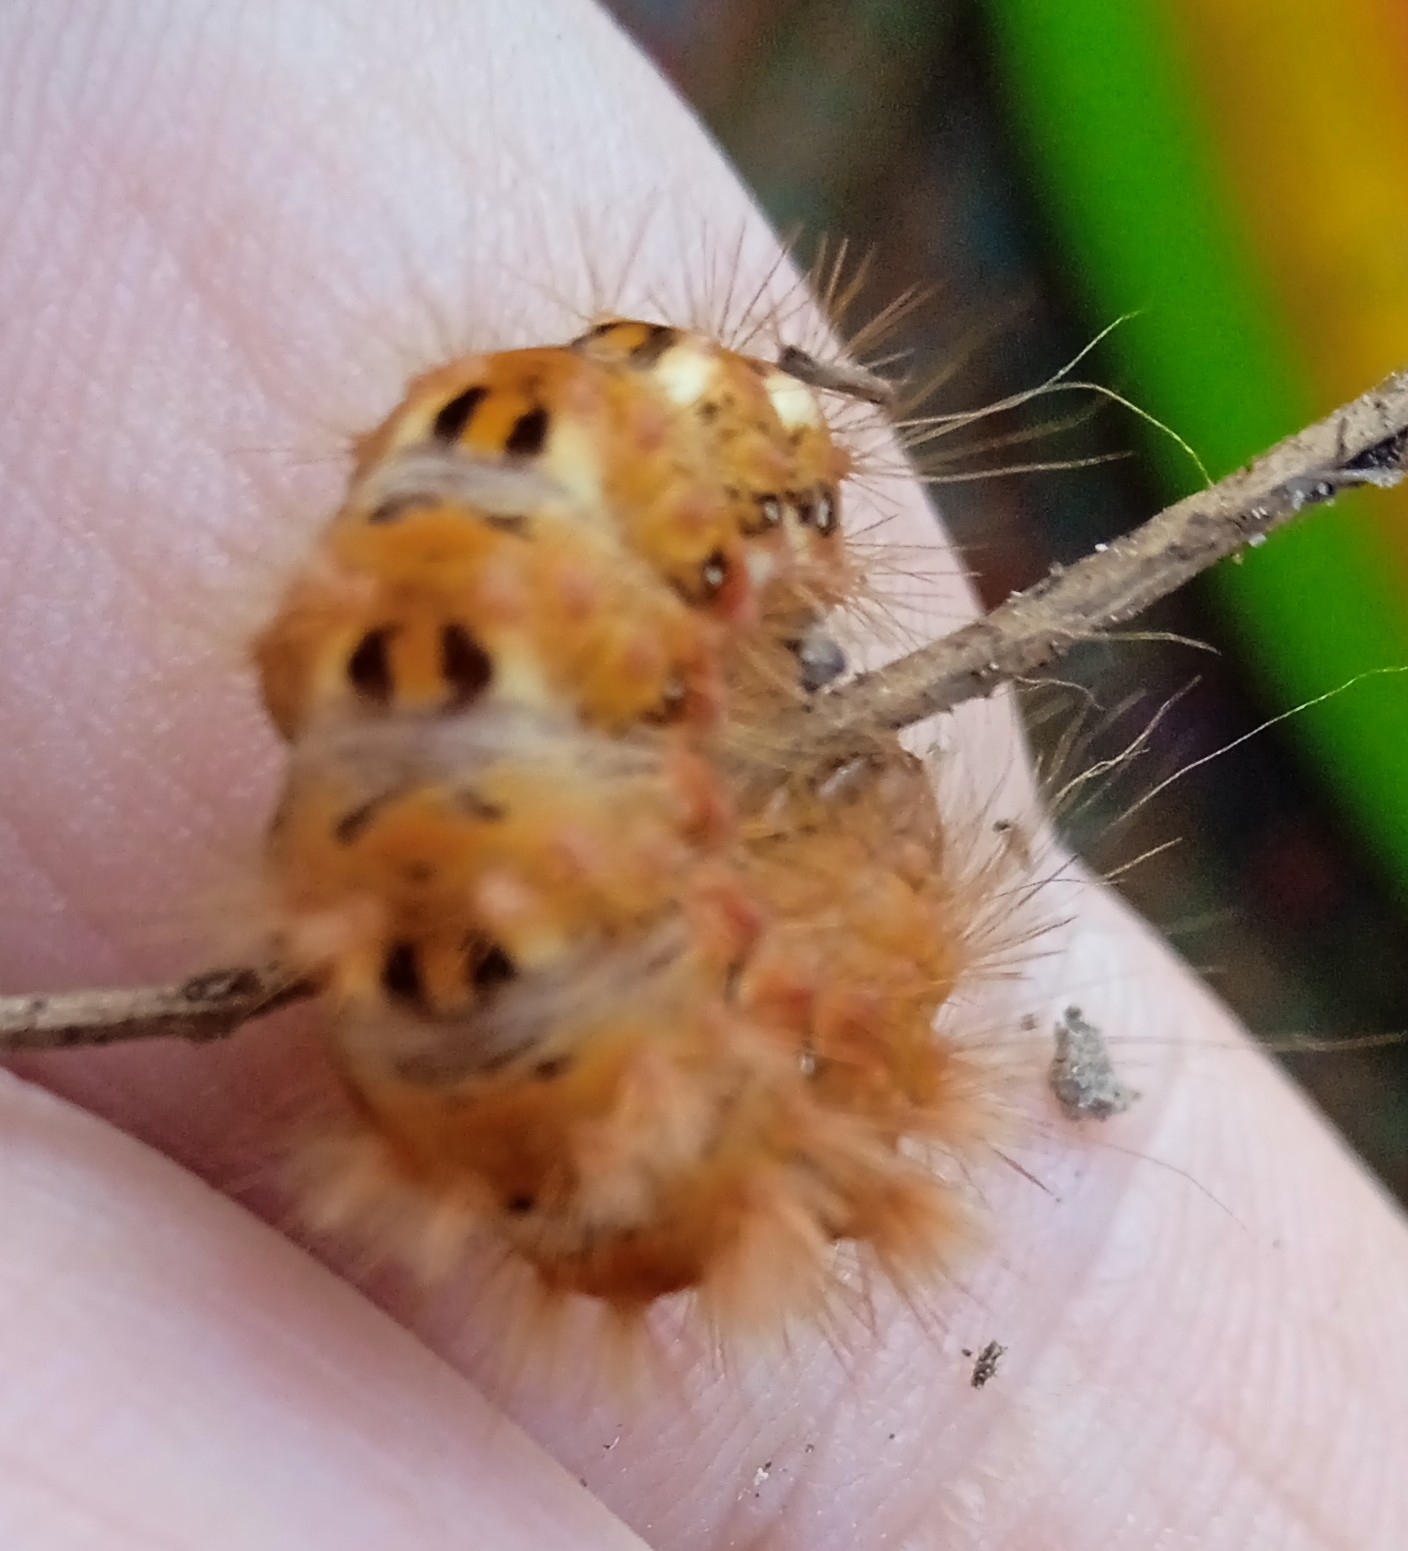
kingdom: Animalia
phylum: Arthropoda
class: Insecta
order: Lepidoptera
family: Noctuidae
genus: Acronicta
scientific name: Acronicta rumicis
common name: Knot grass
